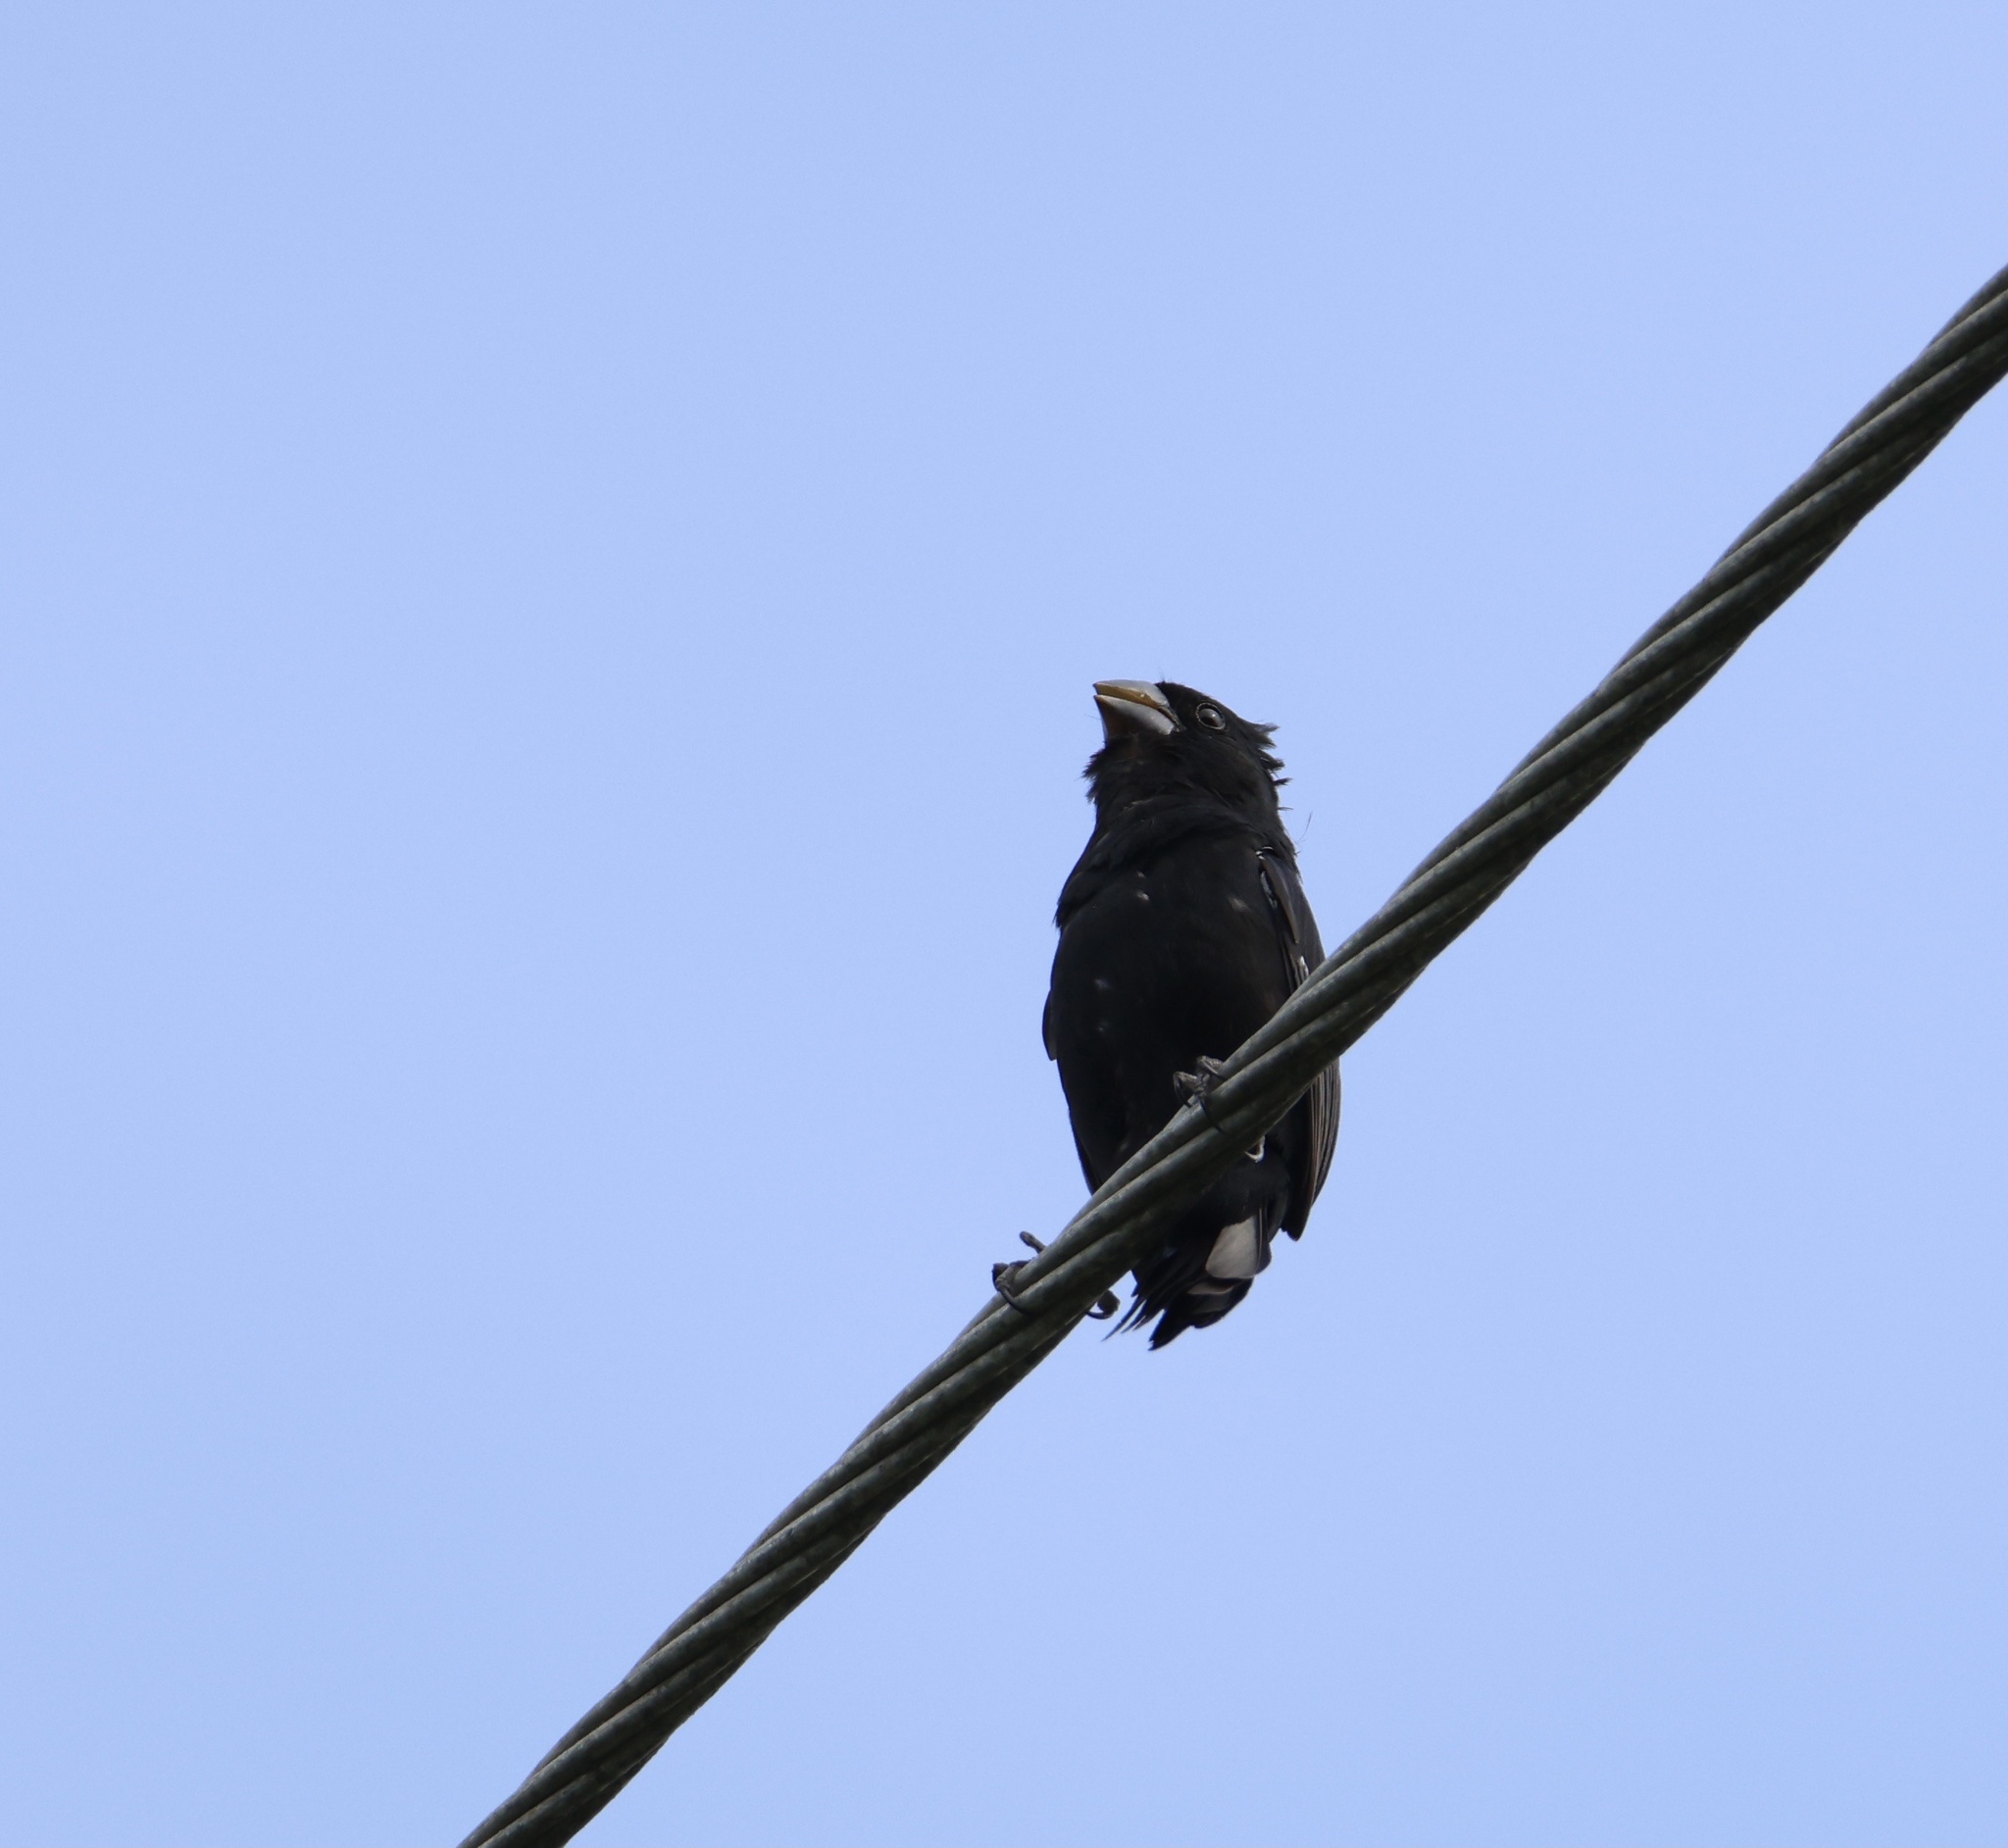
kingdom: Animalia
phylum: Chordata
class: Aves
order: Passeriformes
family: Thraupidae
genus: Sporophila
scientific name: Sporophila funerea
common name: Thick-billed seed-finch
